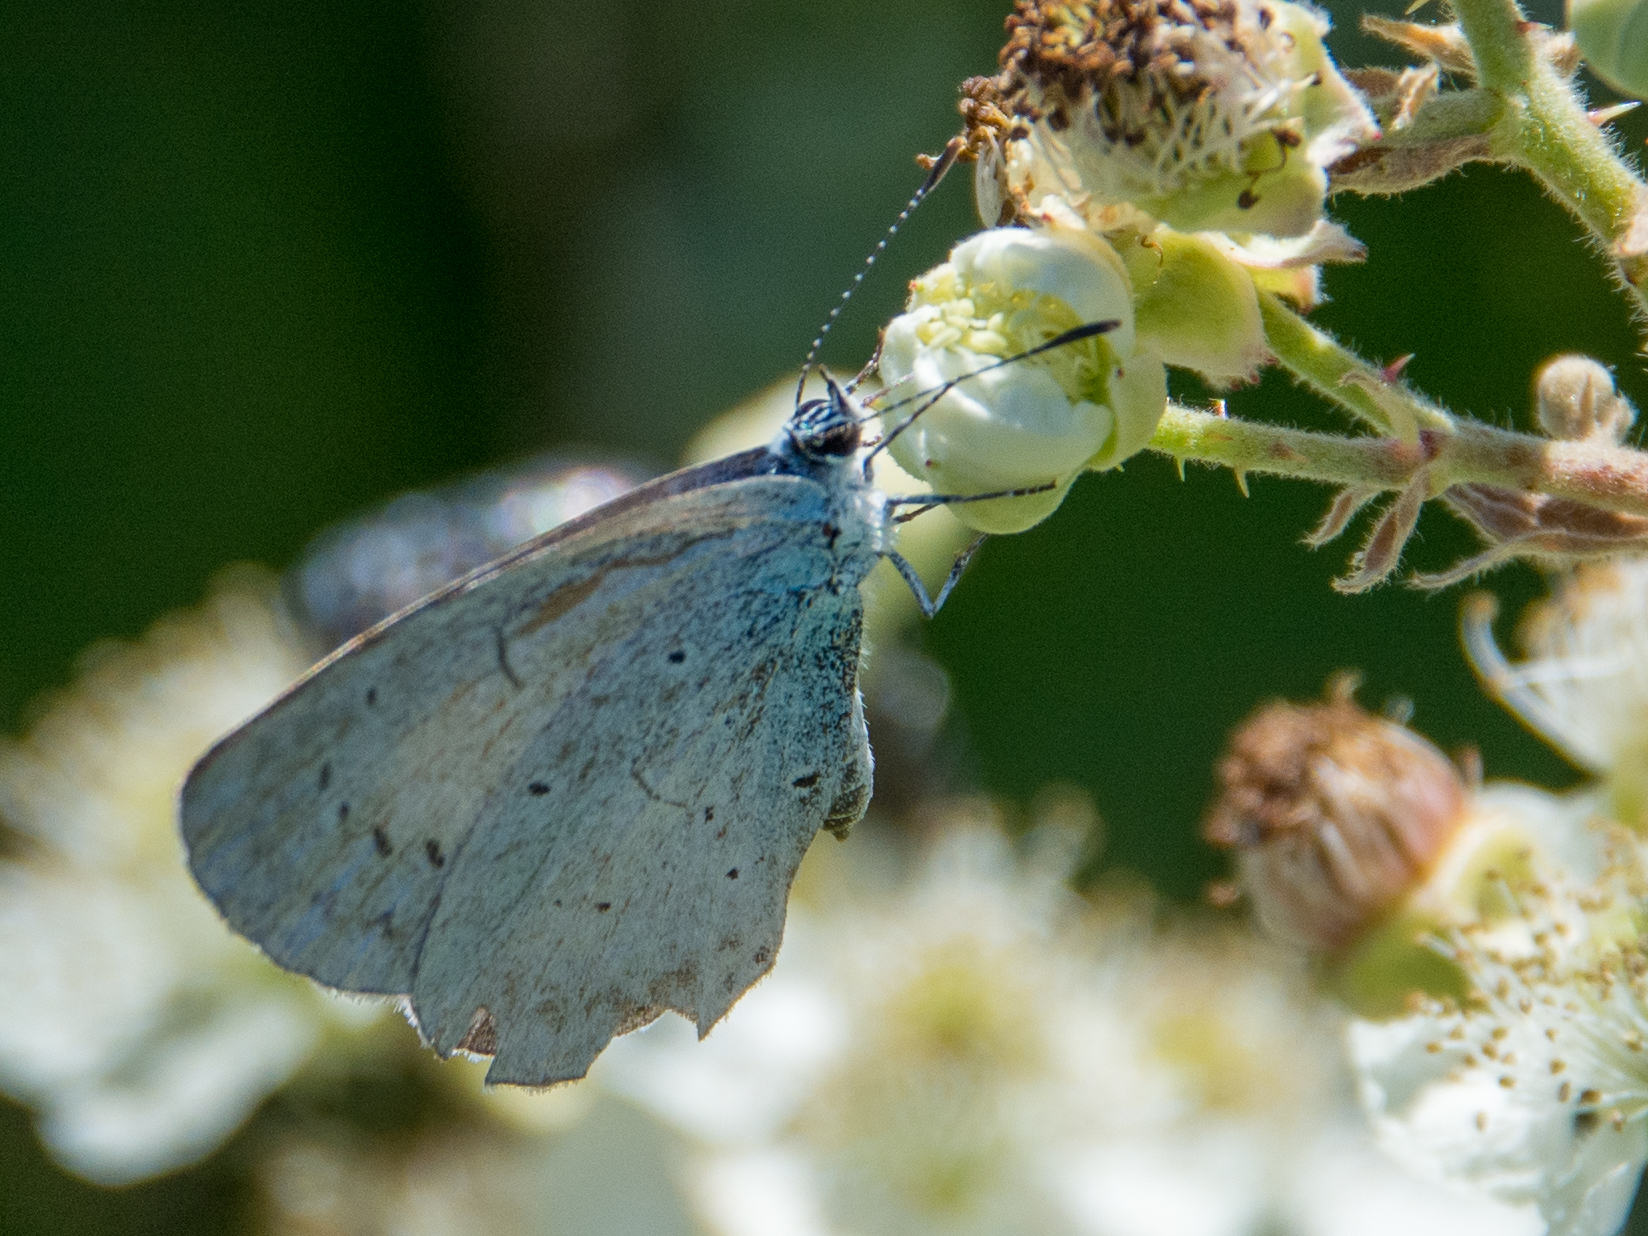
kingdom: Animalia
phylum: Arthropoda
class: Insecta
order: Lepidoptera
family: Lycaenidae
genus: Celastrina
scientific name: Celastrina argiolus
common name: Holly blue
